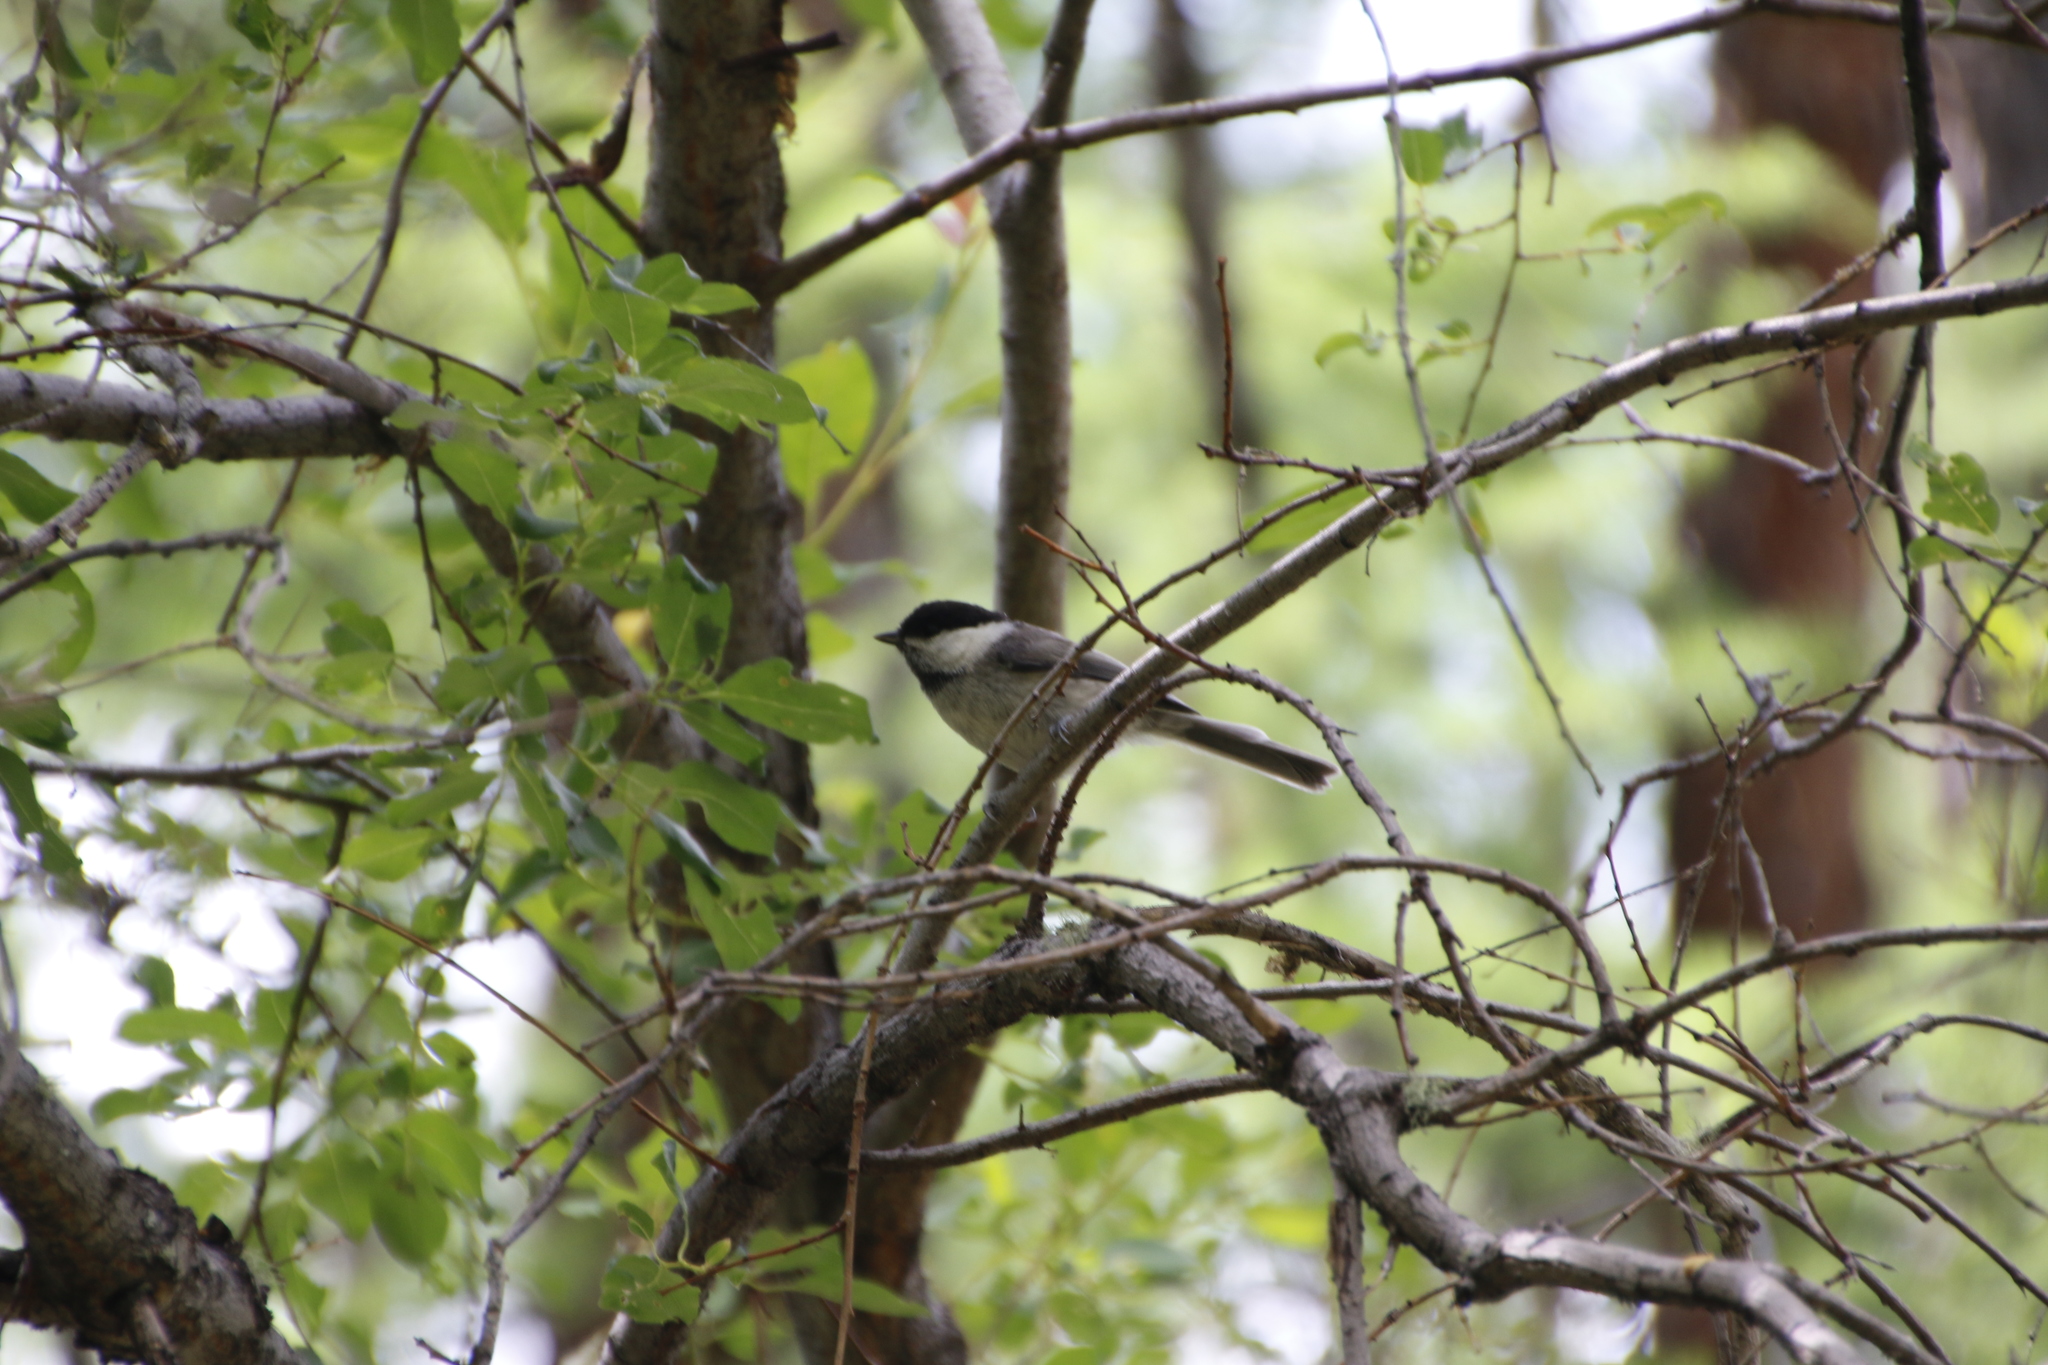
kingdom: Animalia
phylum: Chordata
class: Aves
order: Passeriformes
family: Paridae
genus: Poecile
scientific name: Poecile montanus
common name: Willow tit
